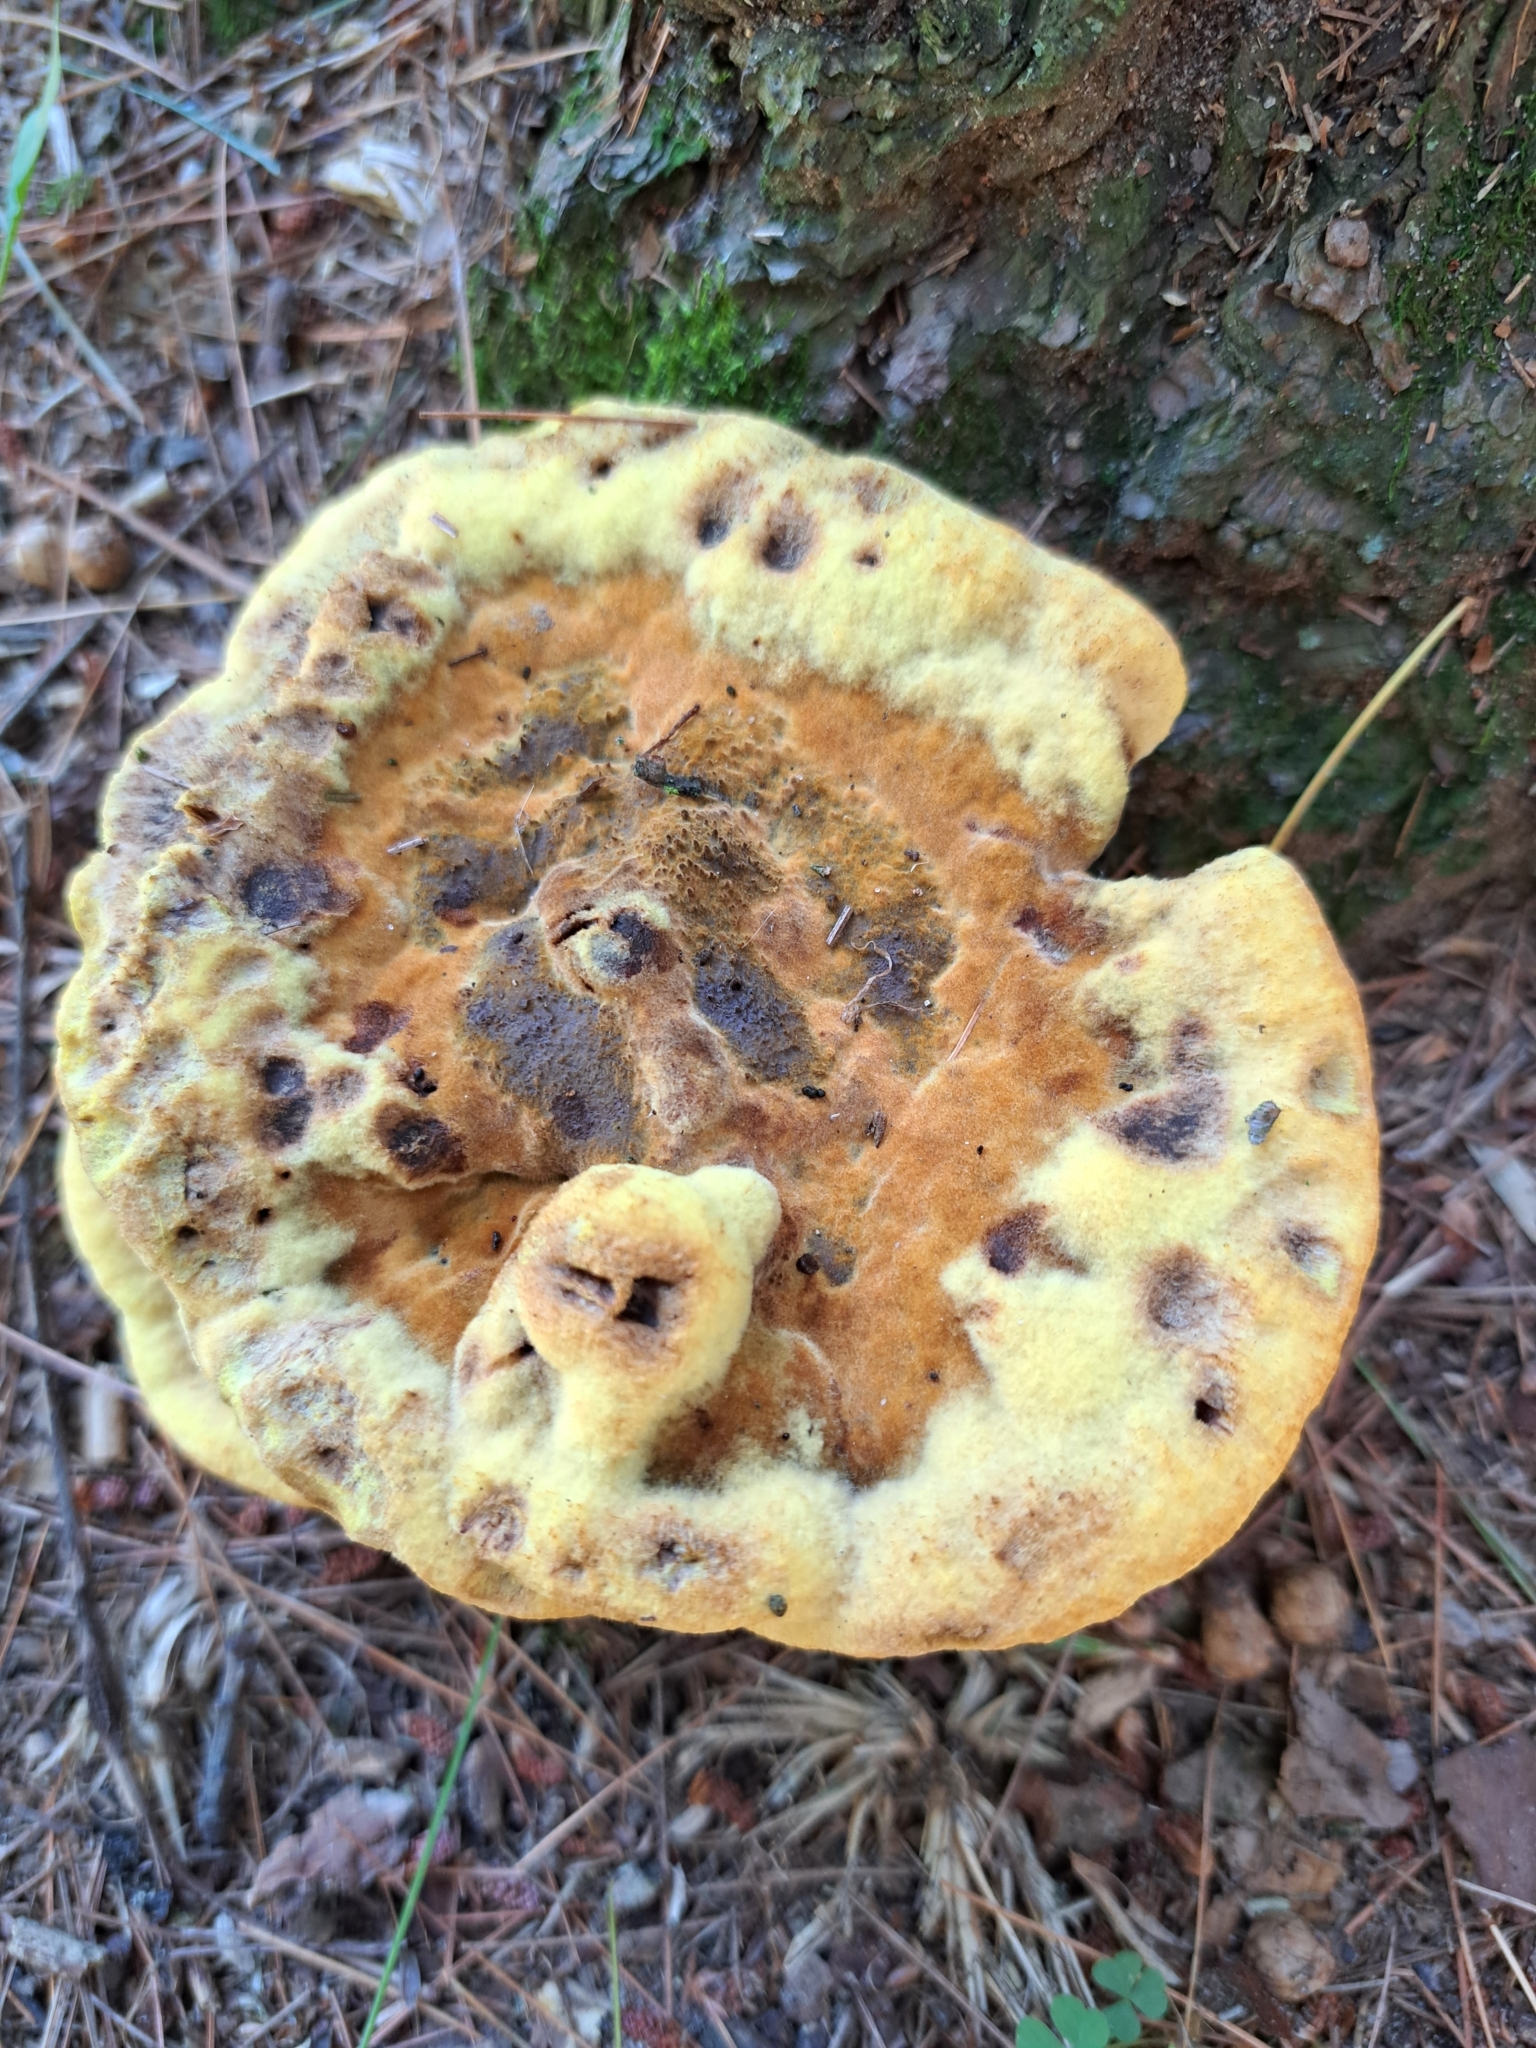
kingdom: Fungi
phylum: Basidiomycota
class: Agaricomycetes
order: Polyporales
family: Laetiporaceae
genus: Phaeolus
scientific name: Phaeolus schweinitzii
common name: Dyer's mazegill
